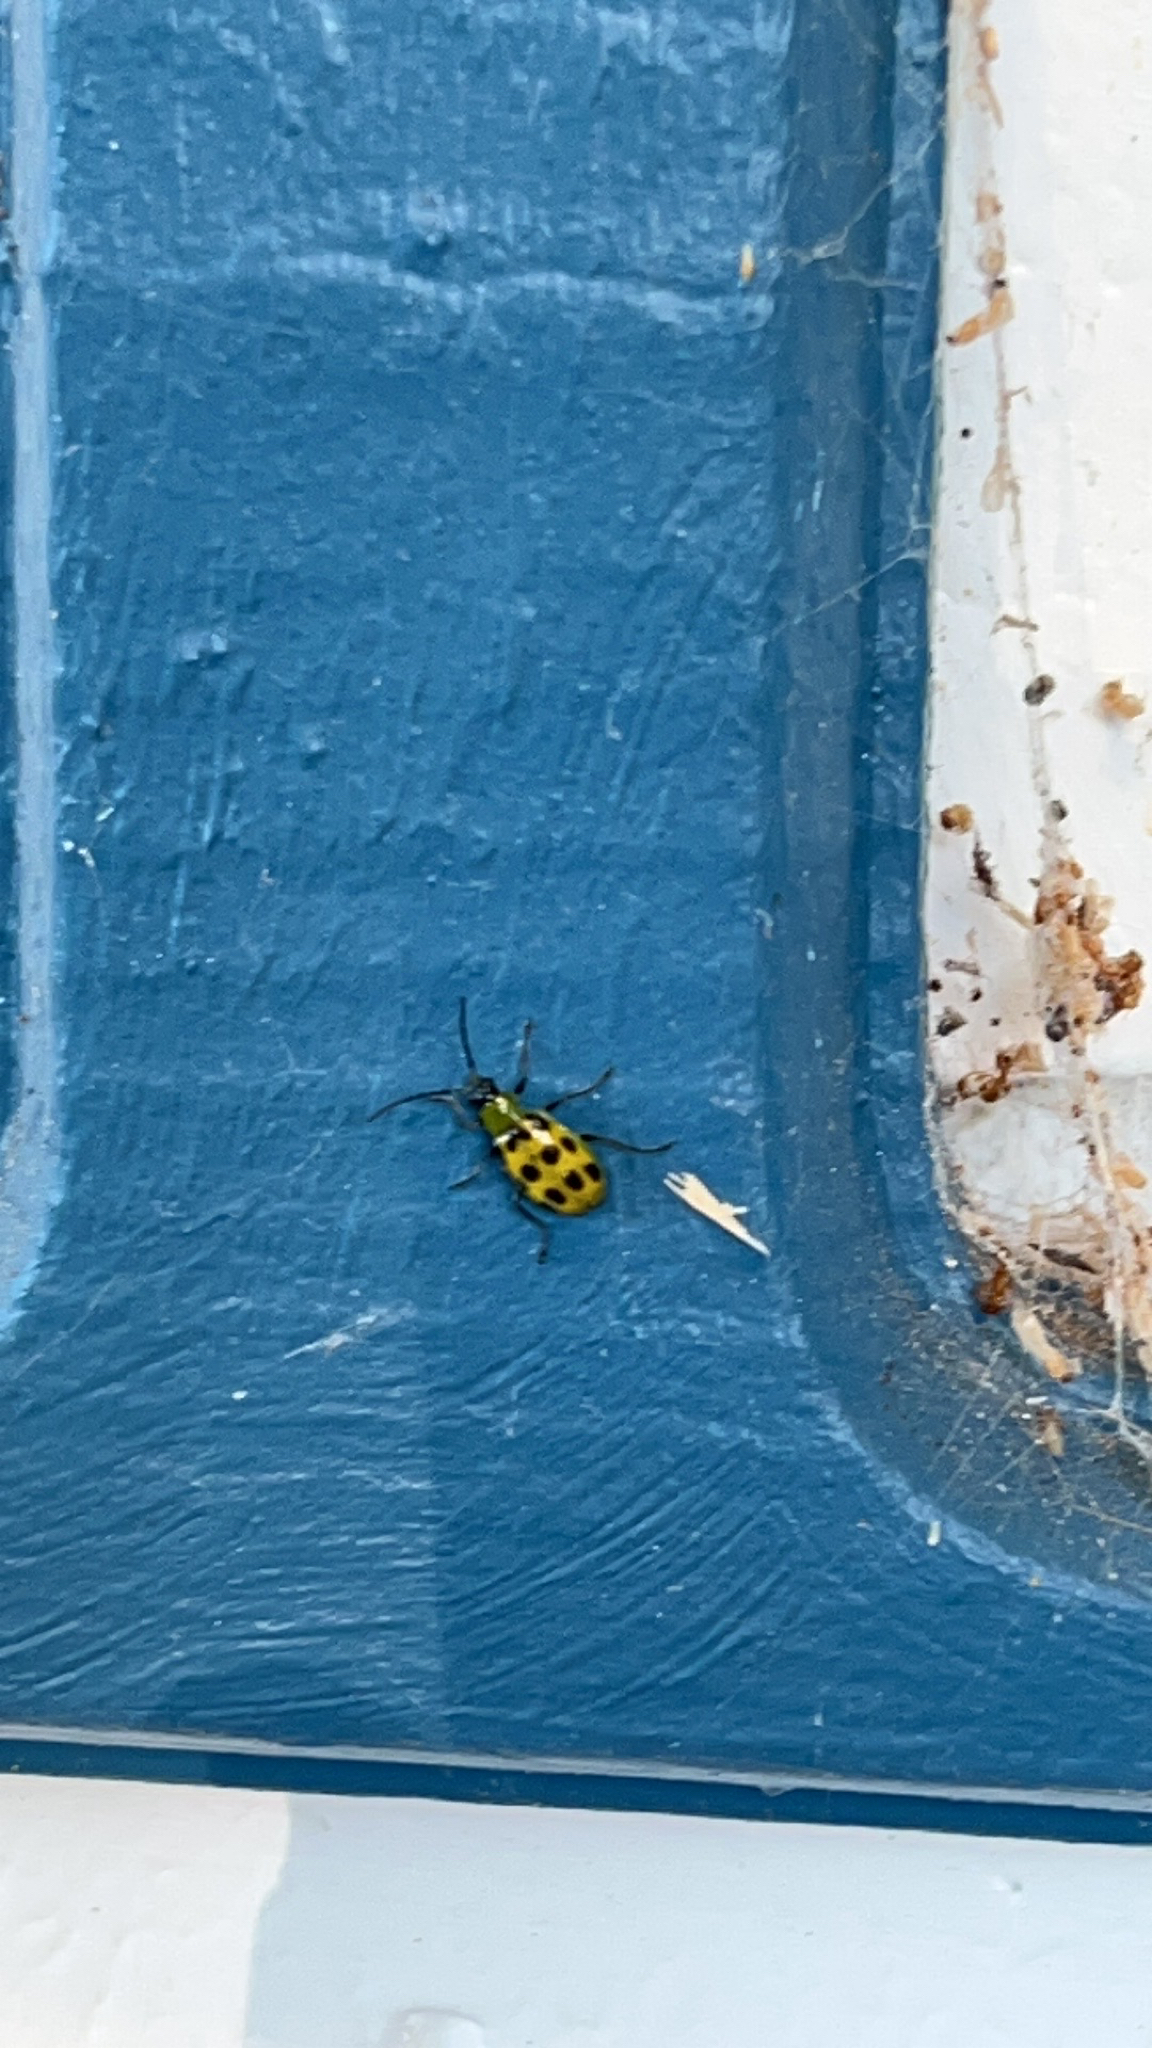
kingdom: Animalia
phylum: Arthropoda
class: Insecta
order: Coleoptera
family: Chrysomelidae
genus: Diabrotica
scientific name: Diabrotica undecimpunctata
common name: Spotted cucumber beetle
